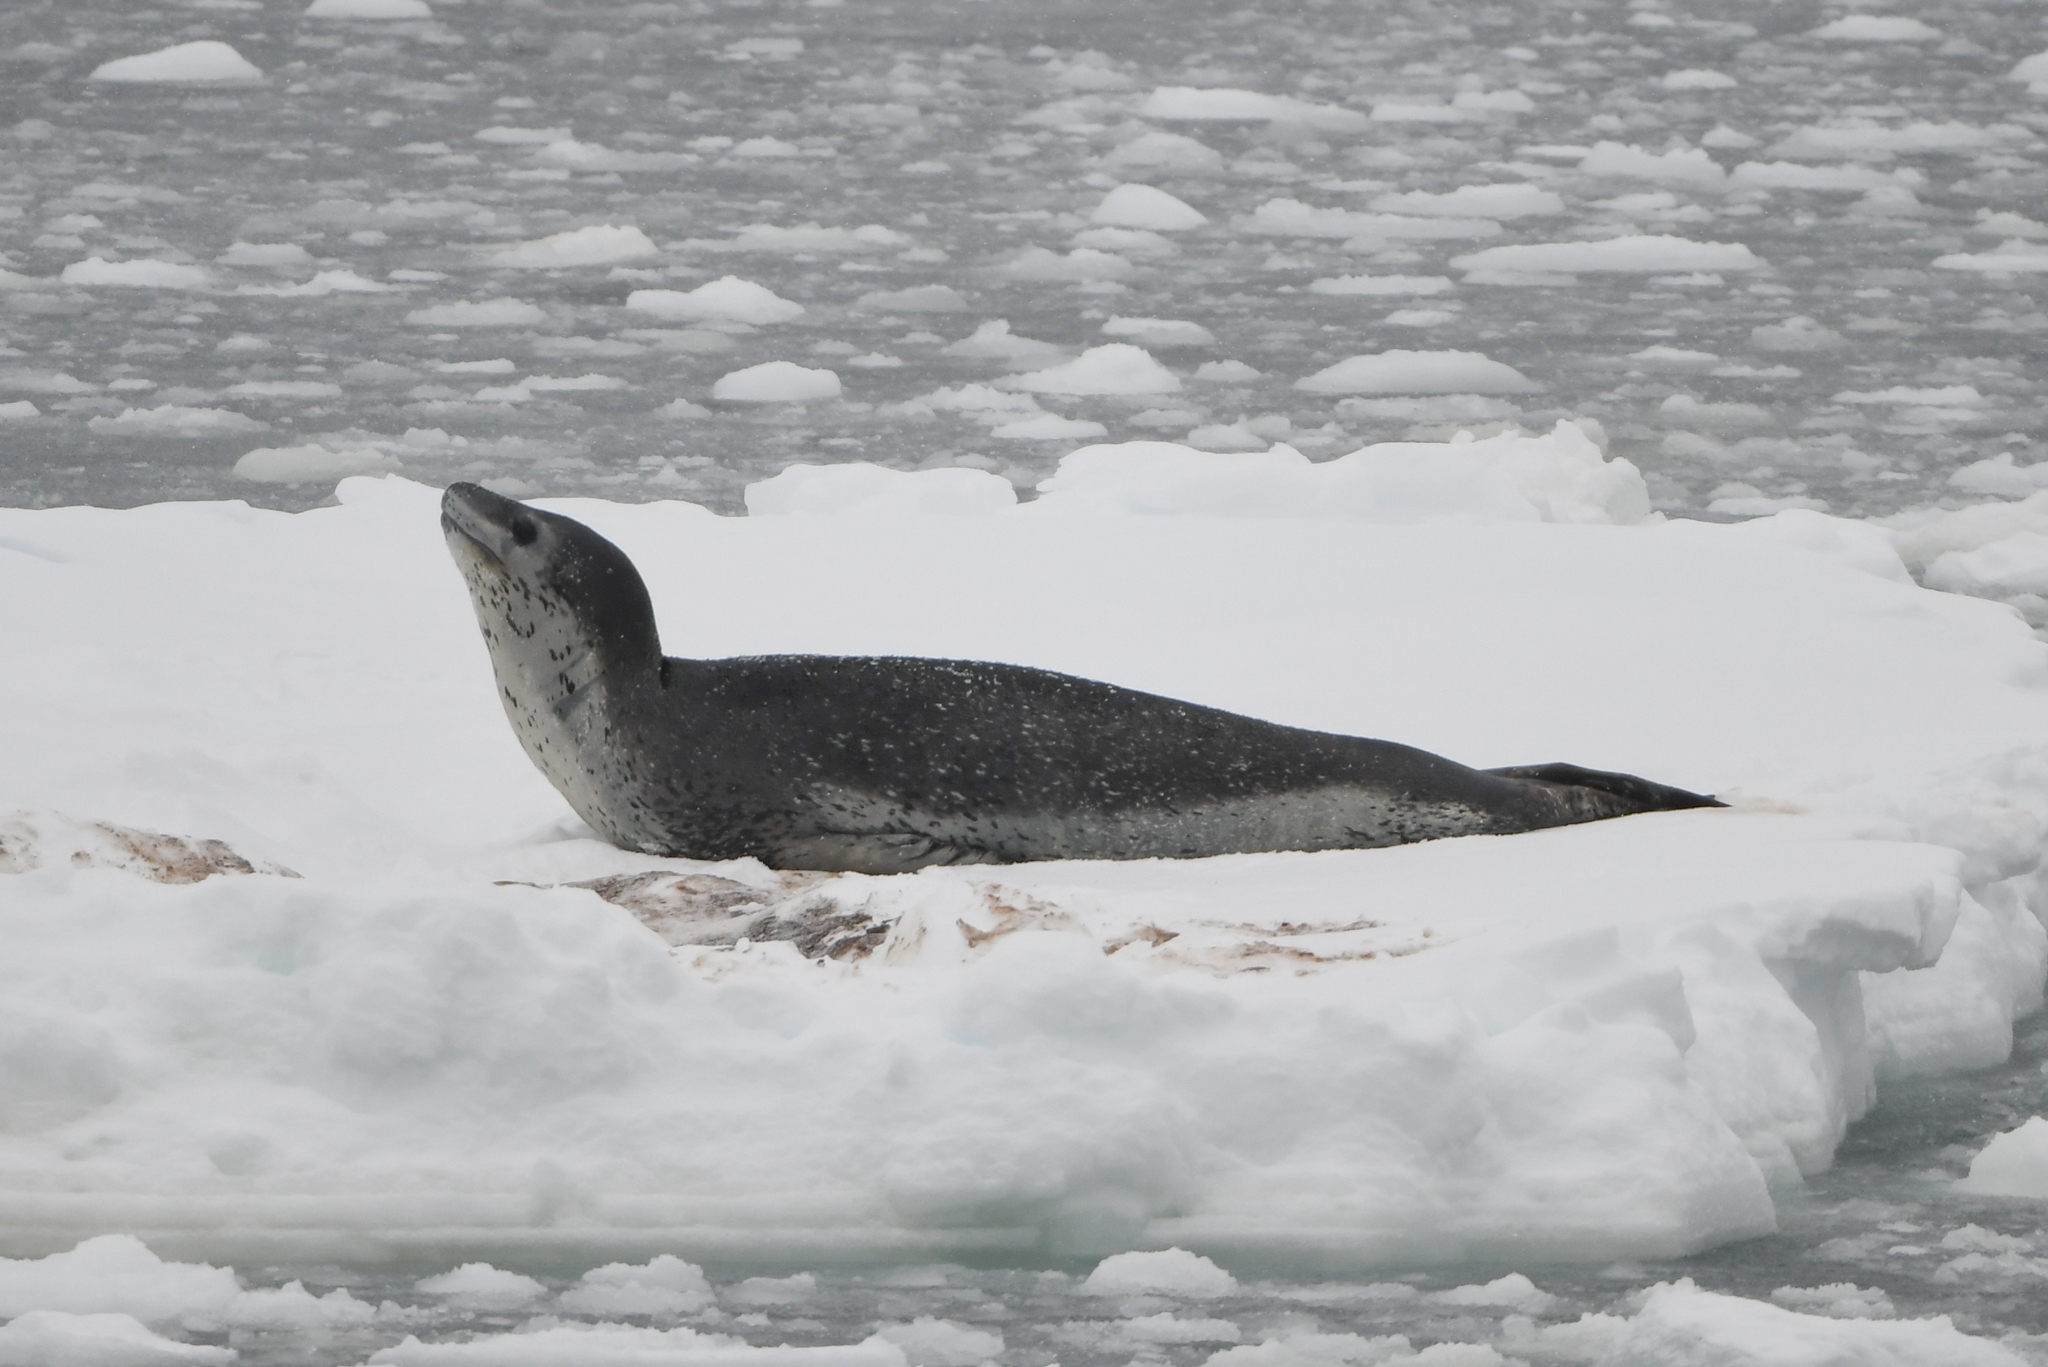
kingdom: Animalia
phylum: Chordata
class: Mammalia
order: Carnivora
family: Phocidae
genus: Hydrurga
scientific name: Hydrurga leptonyx
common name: Leopard seal
